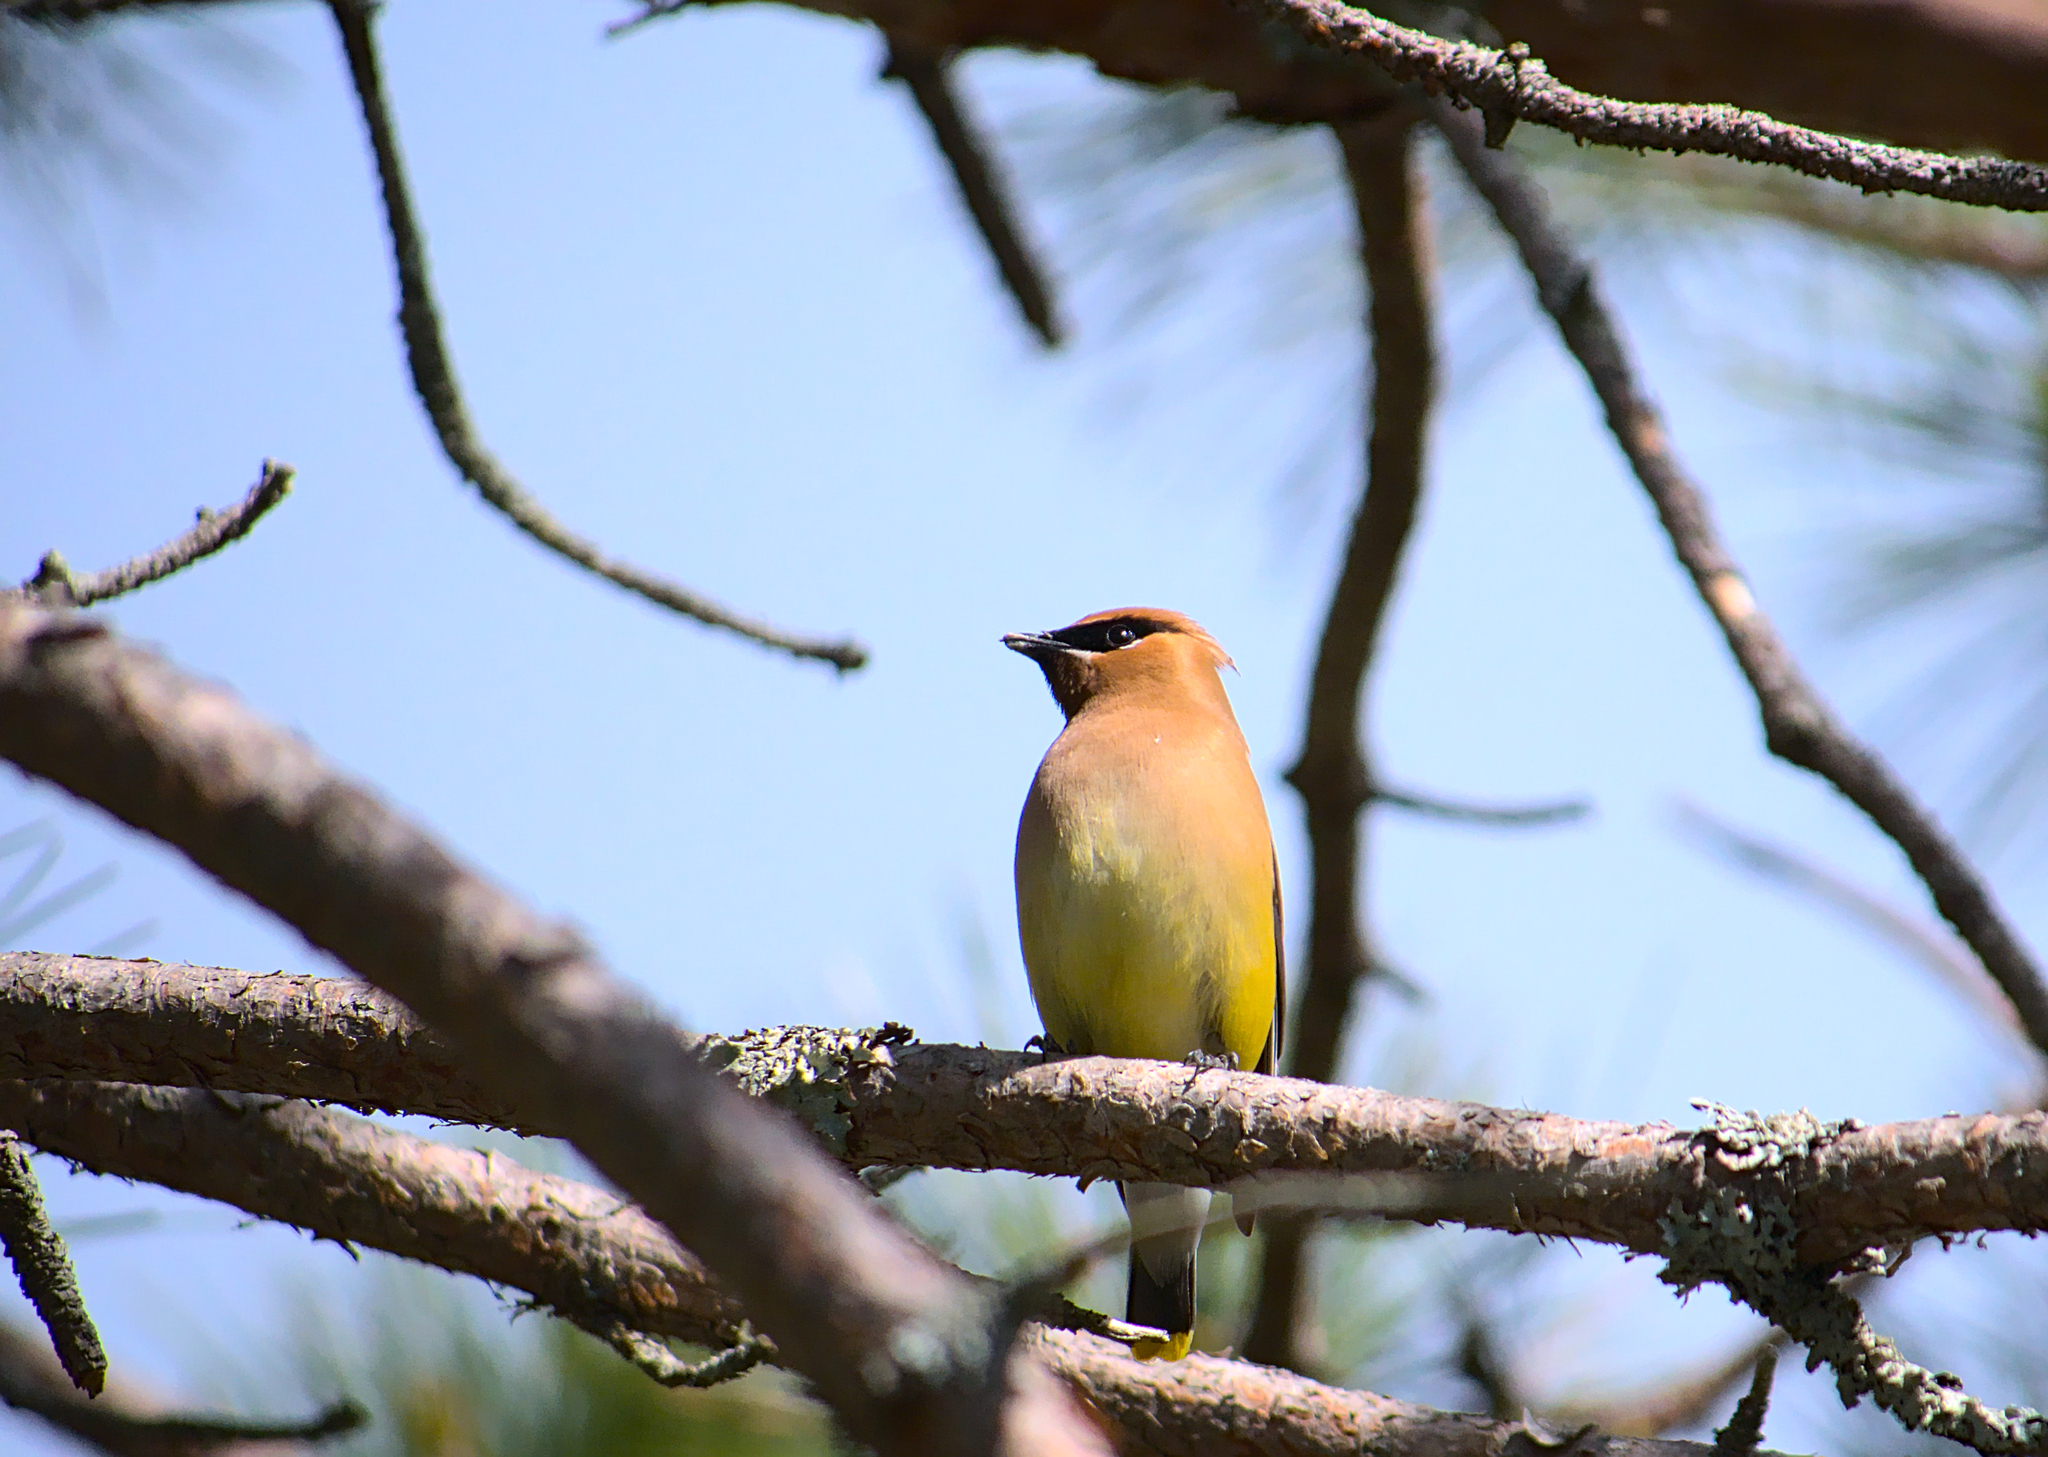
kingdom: Animalia
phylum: Chordata
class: Aves
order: Passeriformes
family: Bombycillidae
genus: Bombycilla
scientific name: Bombycilla cedrorum
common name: Cedar waxwing
